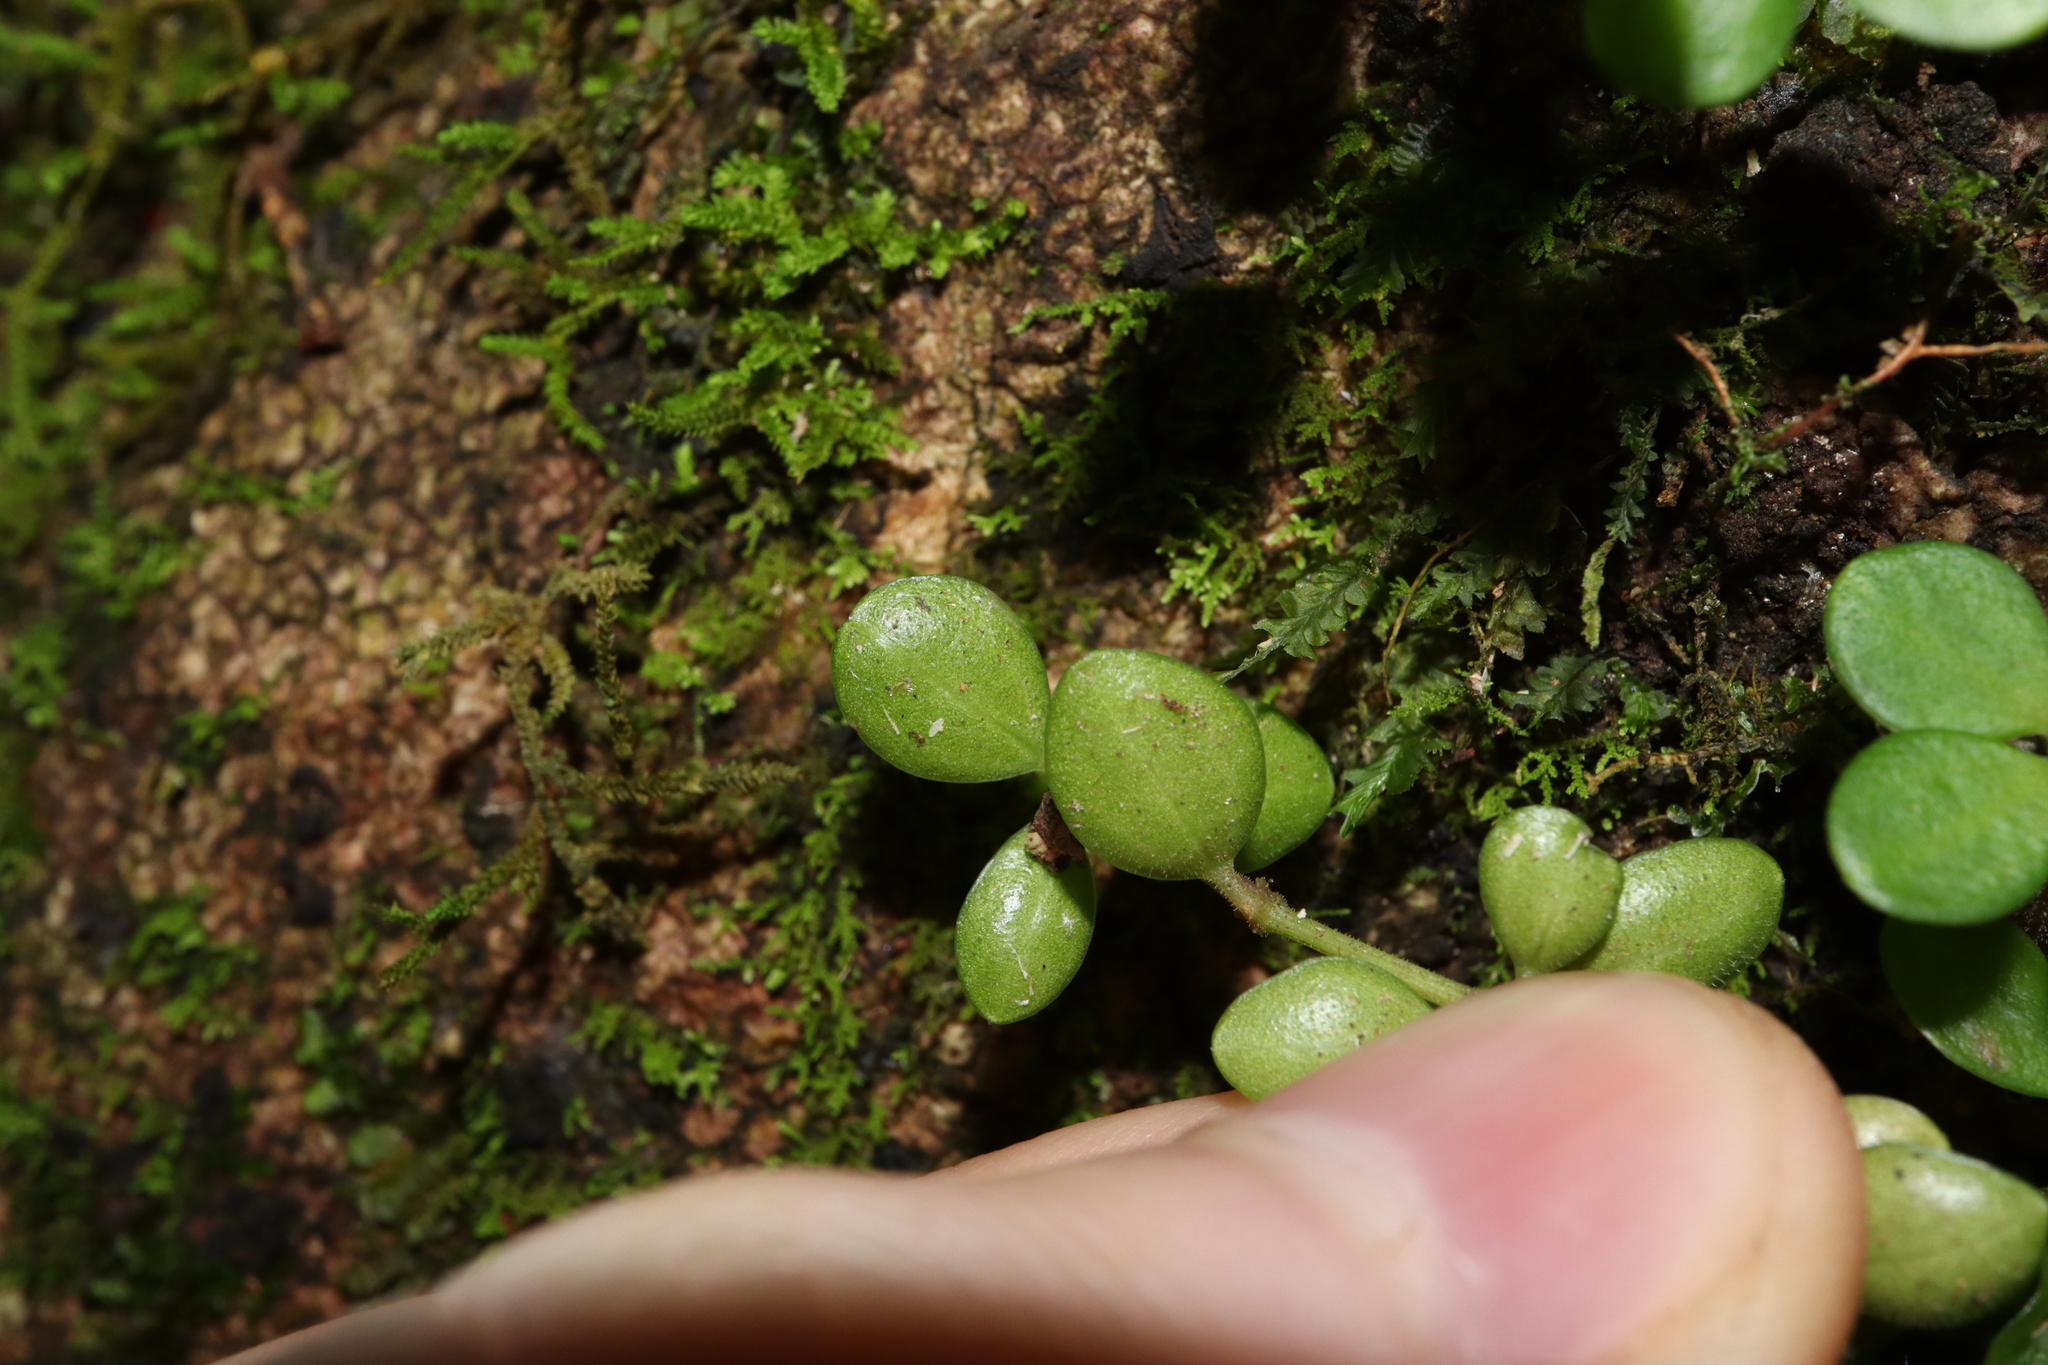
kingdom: Plantae
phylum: Tracheophyta
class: Magnoliopsida
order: Piperales
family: Piperaceae
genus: Peperomia
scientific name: Peperomia tetraphylla
